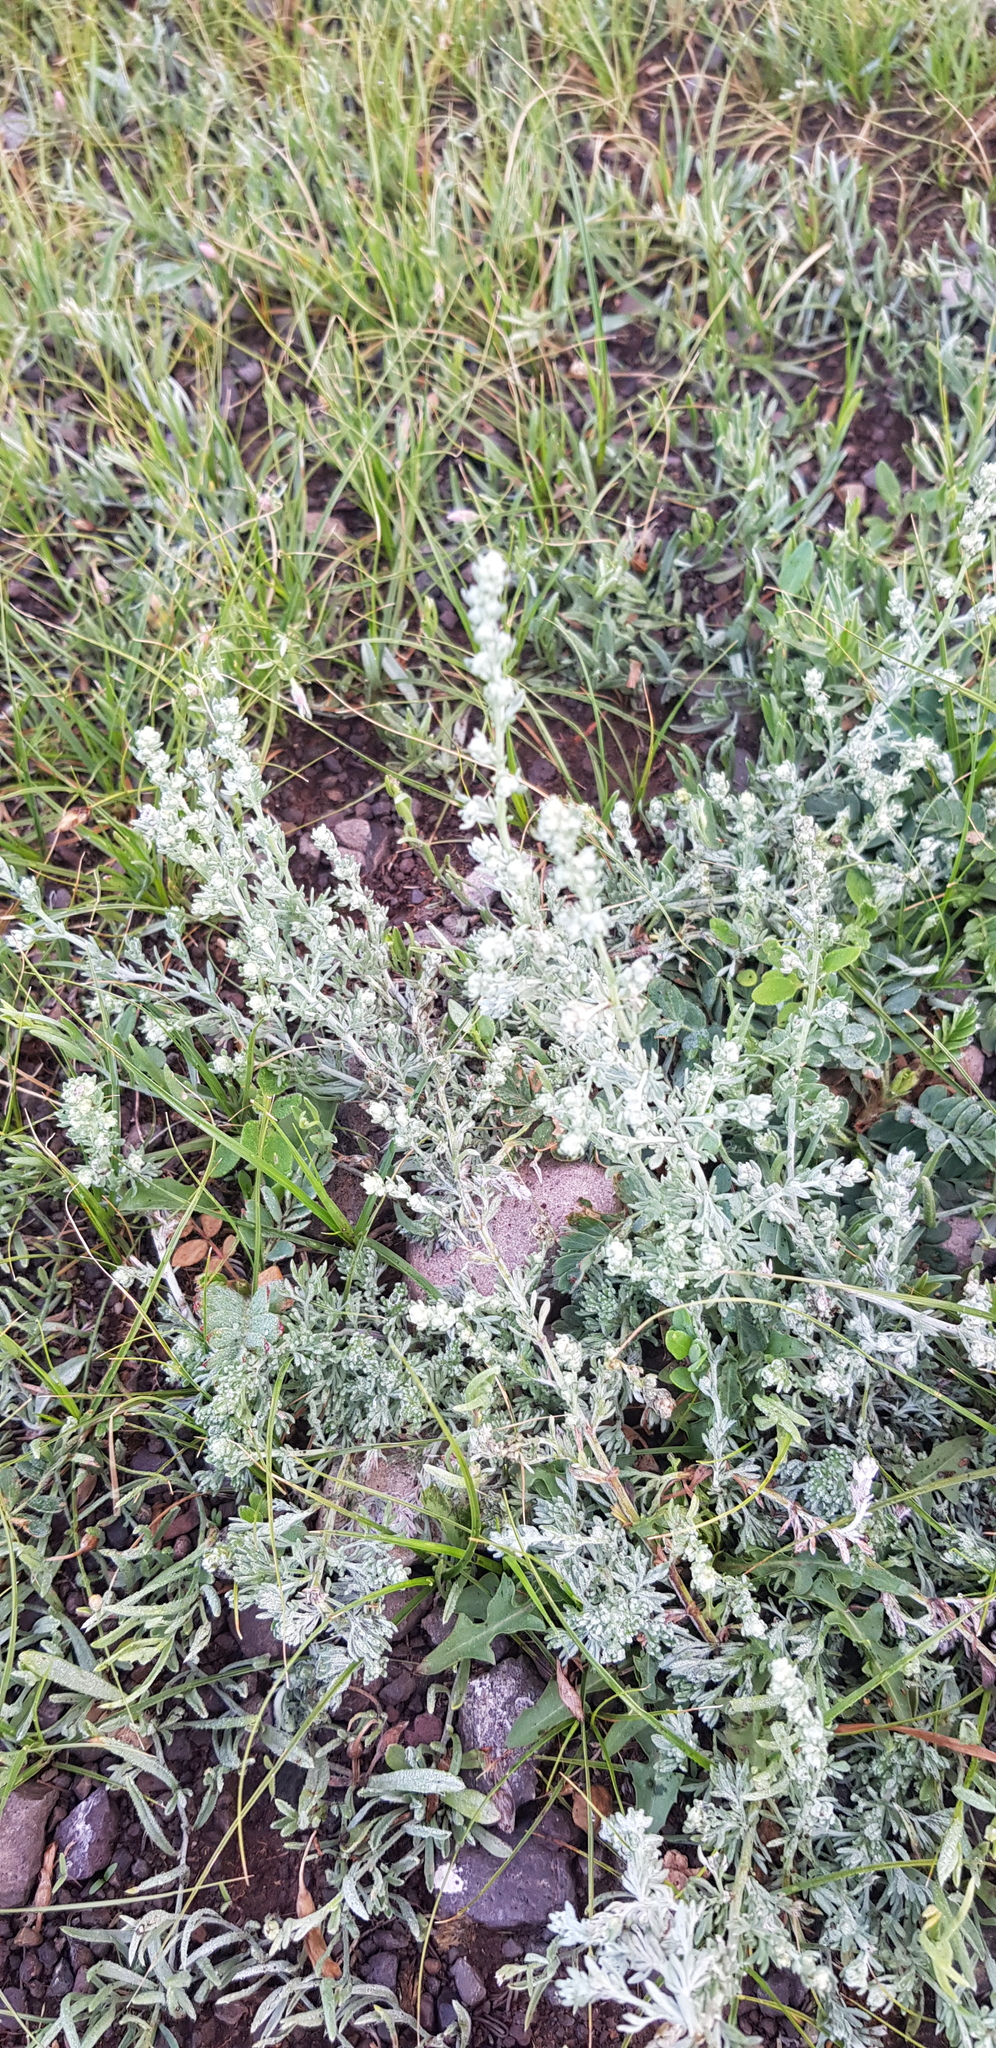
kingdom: Plantae
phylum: Tracheophyta
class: Magnoliopsida
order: Asterales
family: Asteraceae
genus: Artemisia
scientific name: Artemisia frigida
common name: Prairie sagewort
